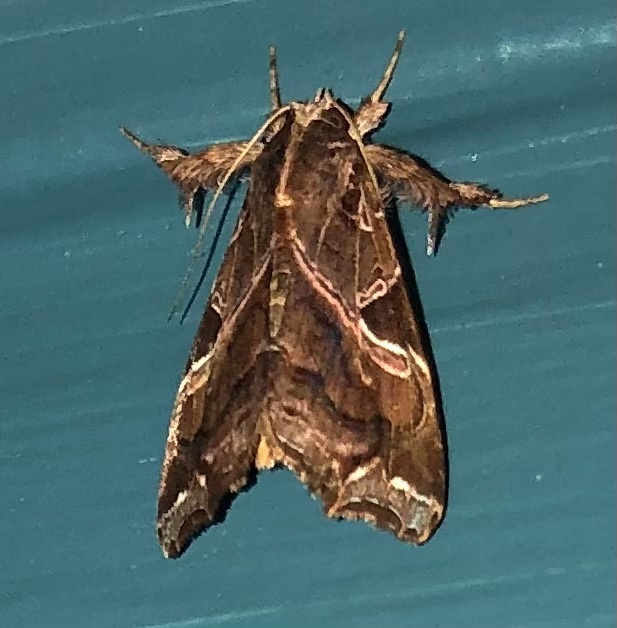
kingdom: Animalia
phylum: Arthropoda
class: Insecta
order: Lepidoptera
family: Noctuidae
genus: Callopistria
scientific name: Callopistria floridensis
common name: Florida fern moth
